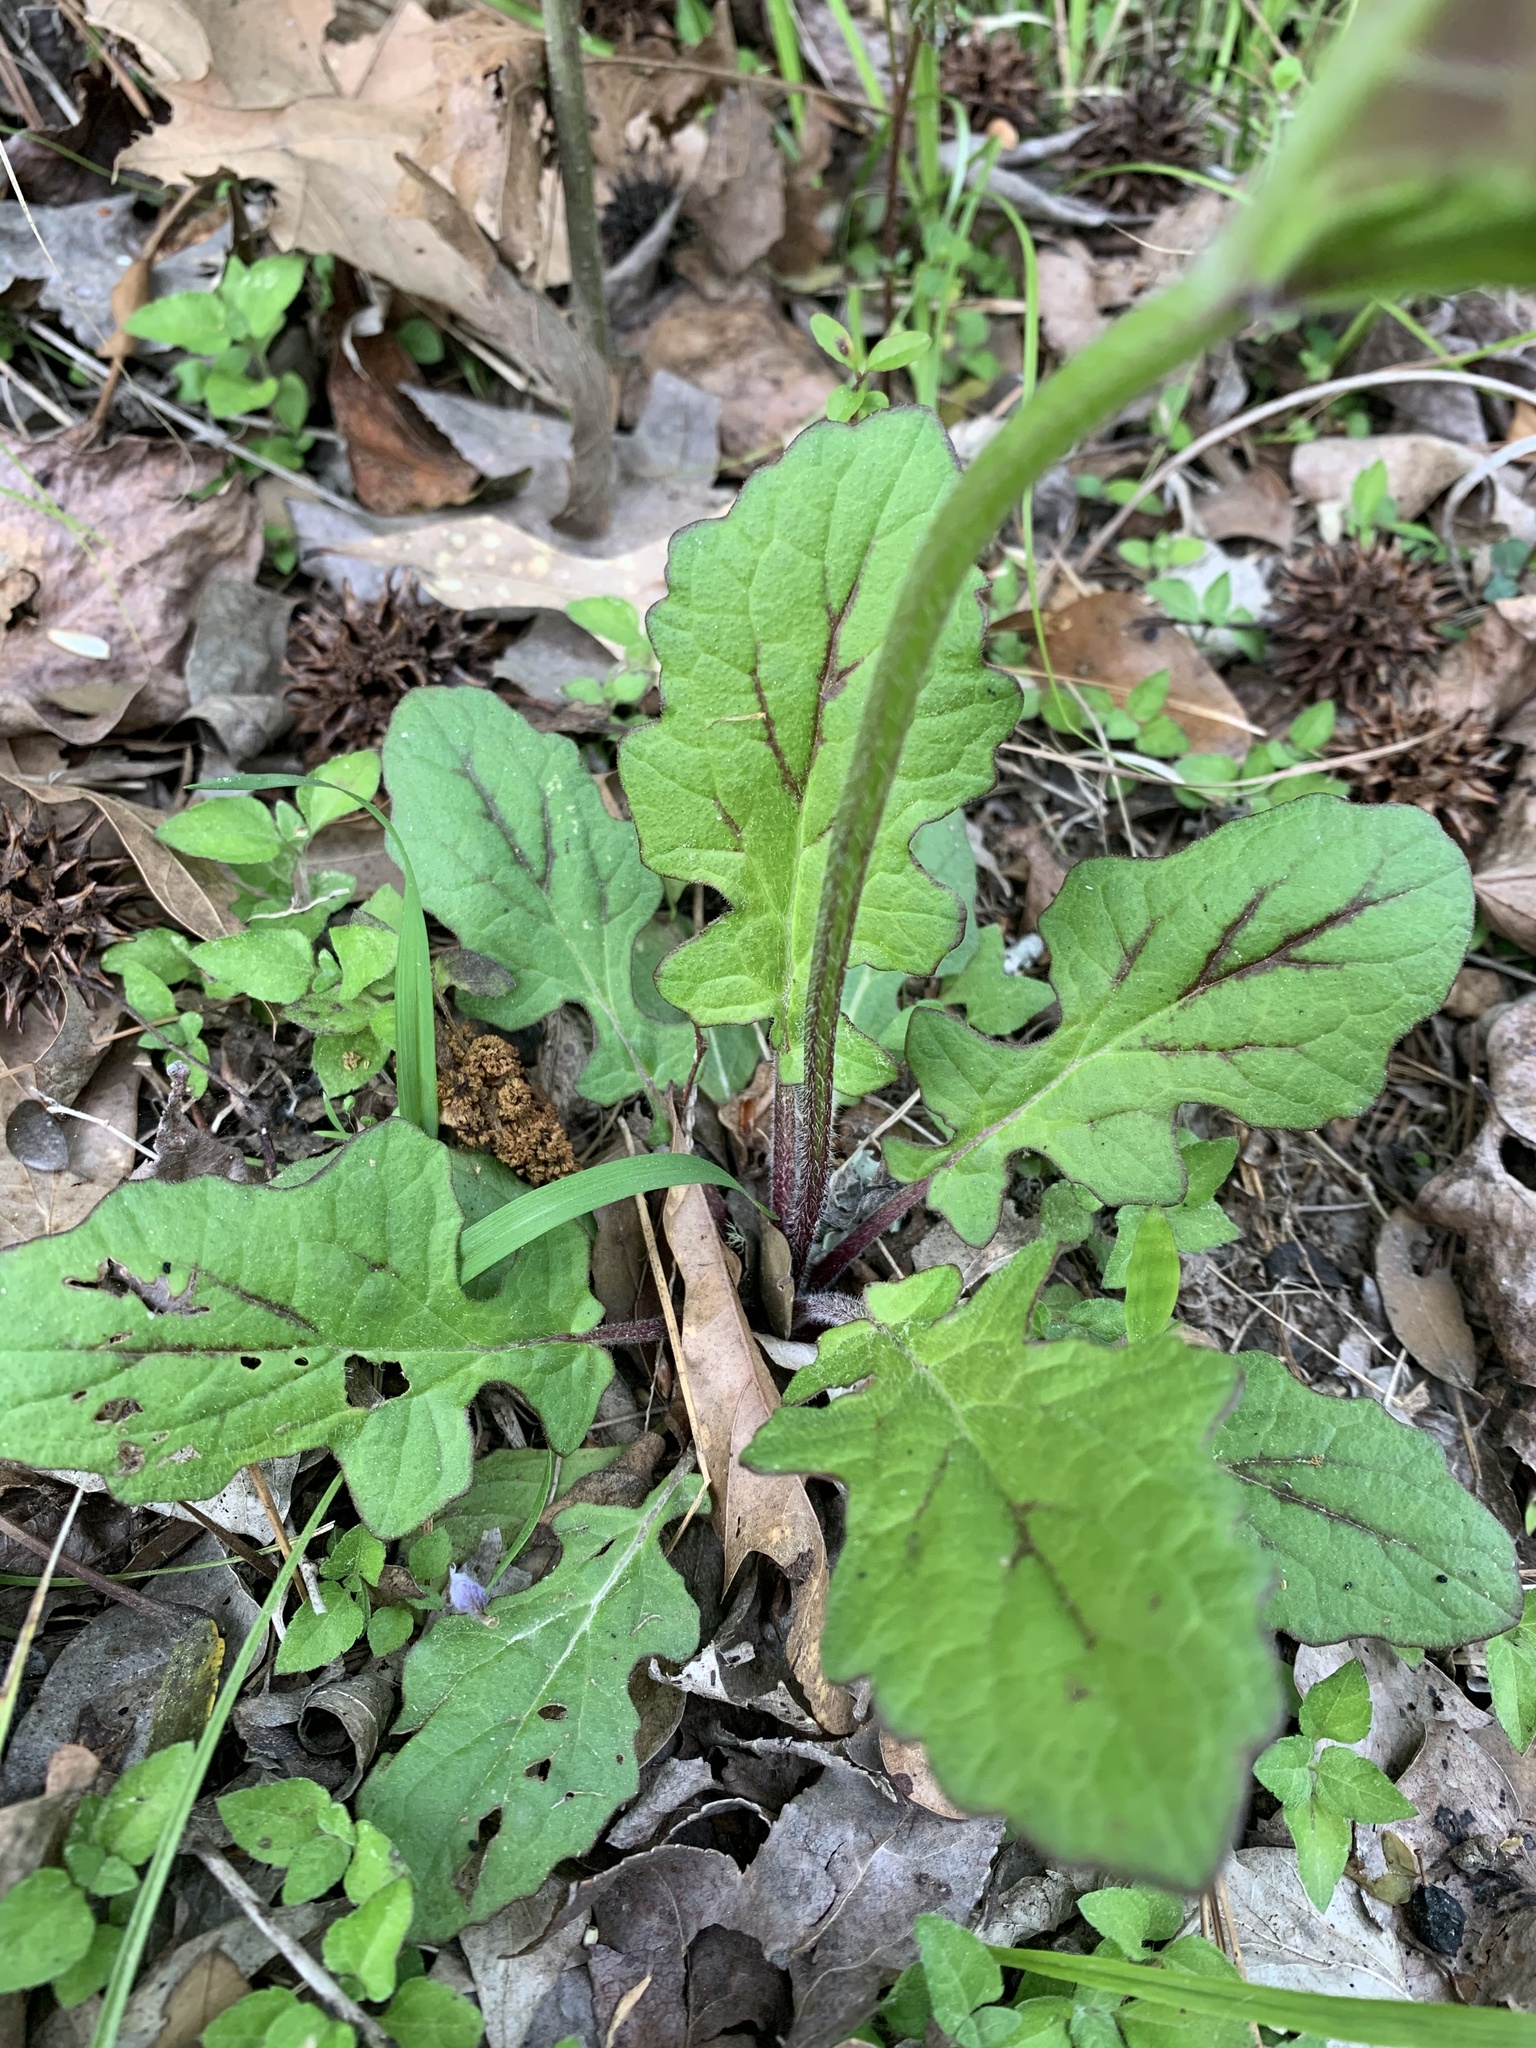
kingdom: Plantae
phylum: Tracheophyta
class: Magnoliopsida
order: Lamiales
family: Lamiaceae
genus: Salvia
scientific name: Salvia lyrata
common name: Cancerweed
